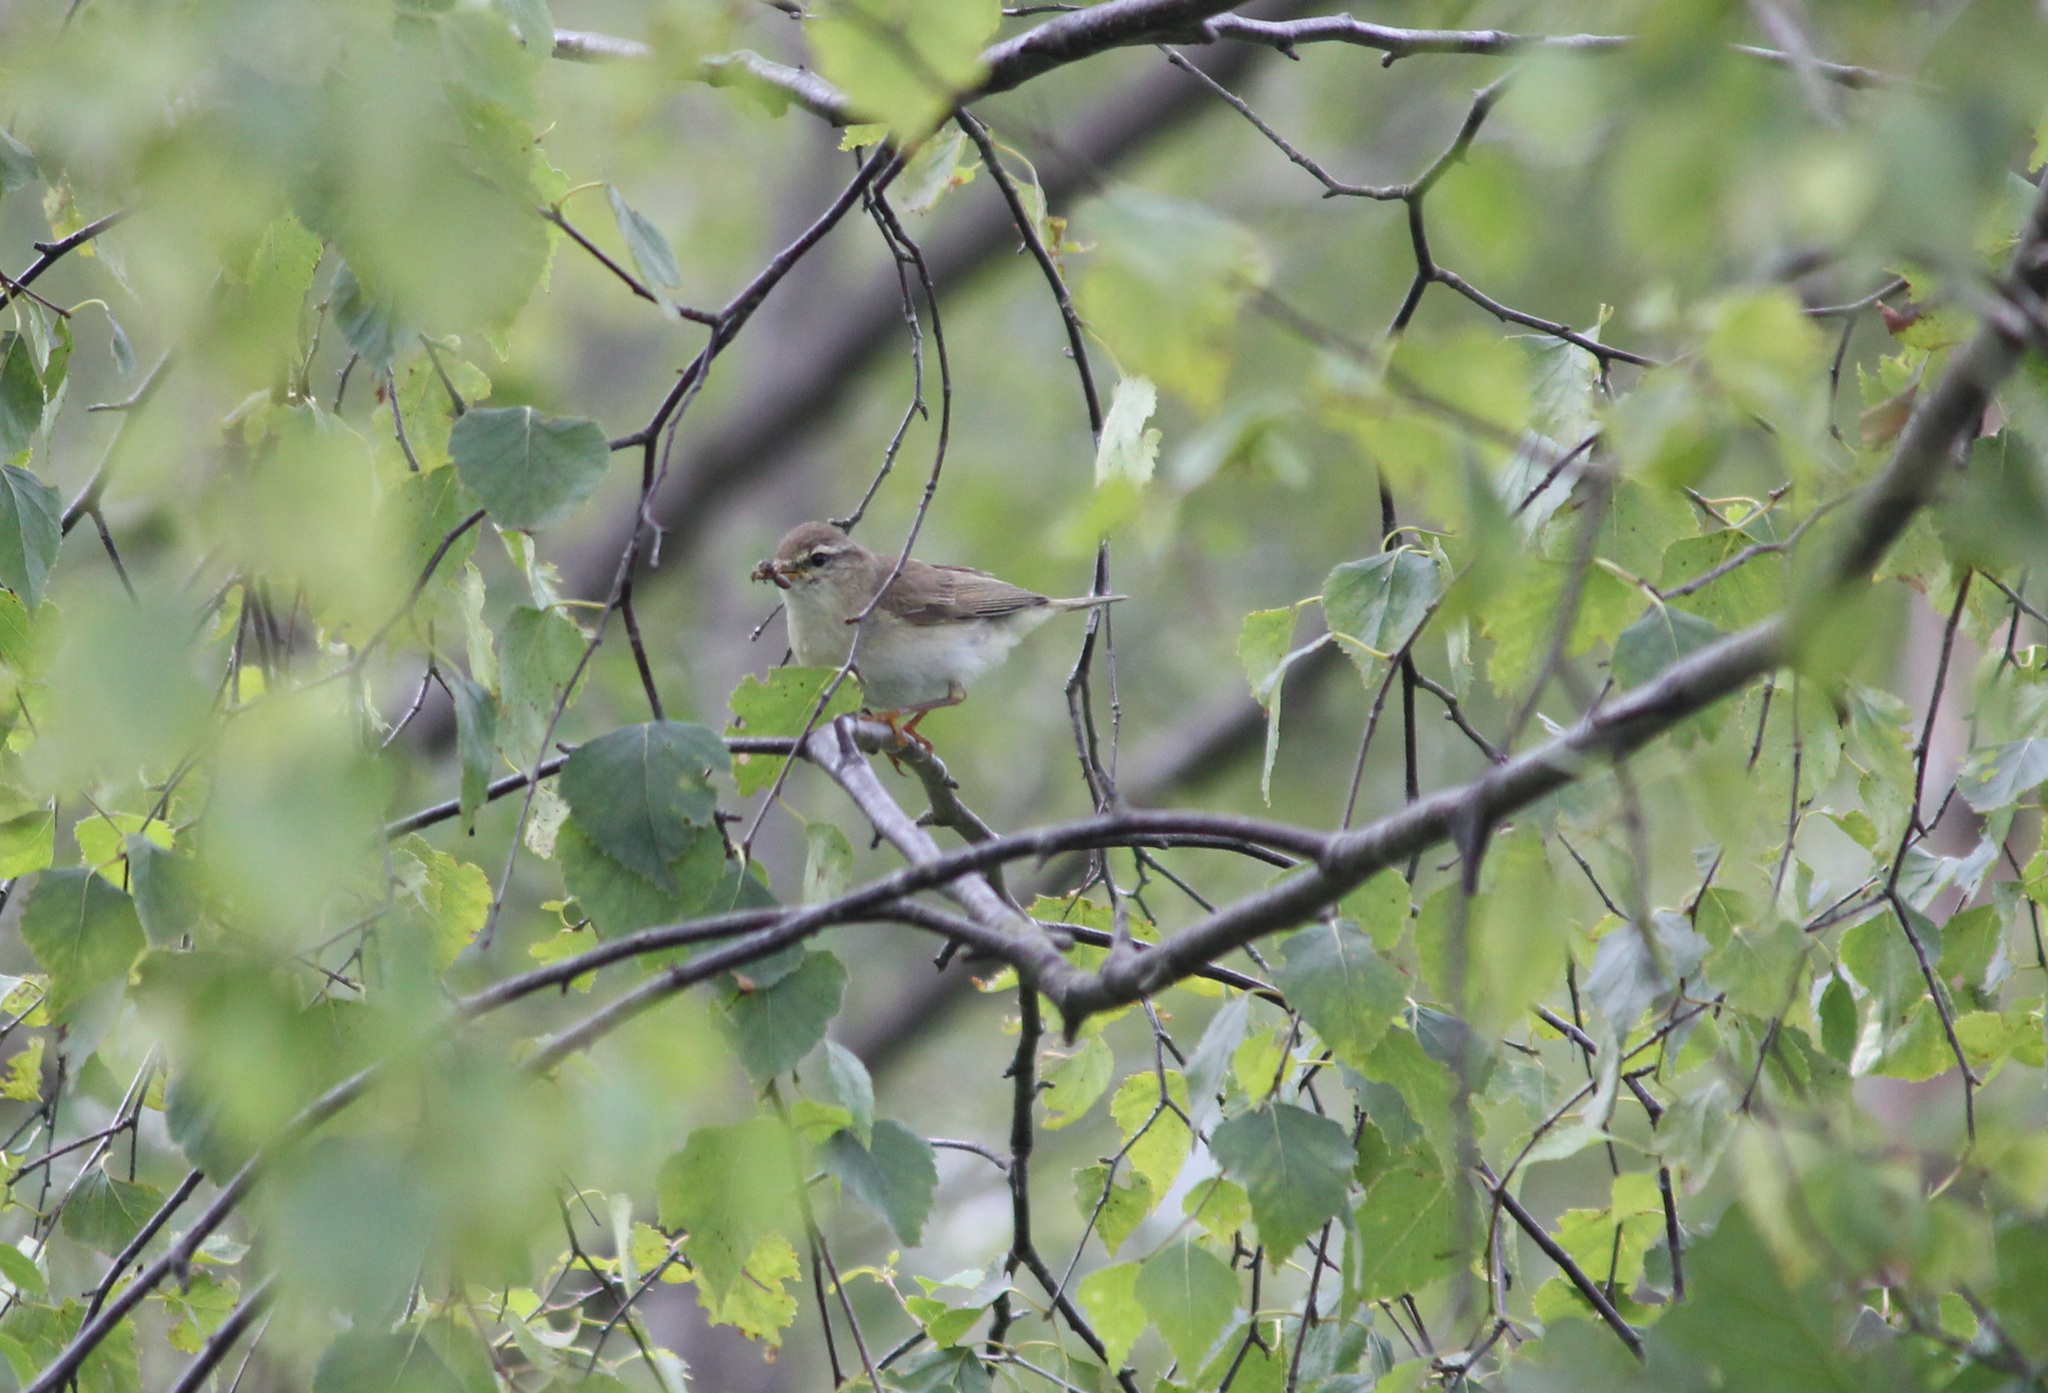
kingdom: Animalia
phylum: Chordata
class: Aves
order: Passeriformes
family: Phylloscopidae
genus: Phylloscopus
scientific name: Phylloscopus trochilus
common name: Willow warbler
